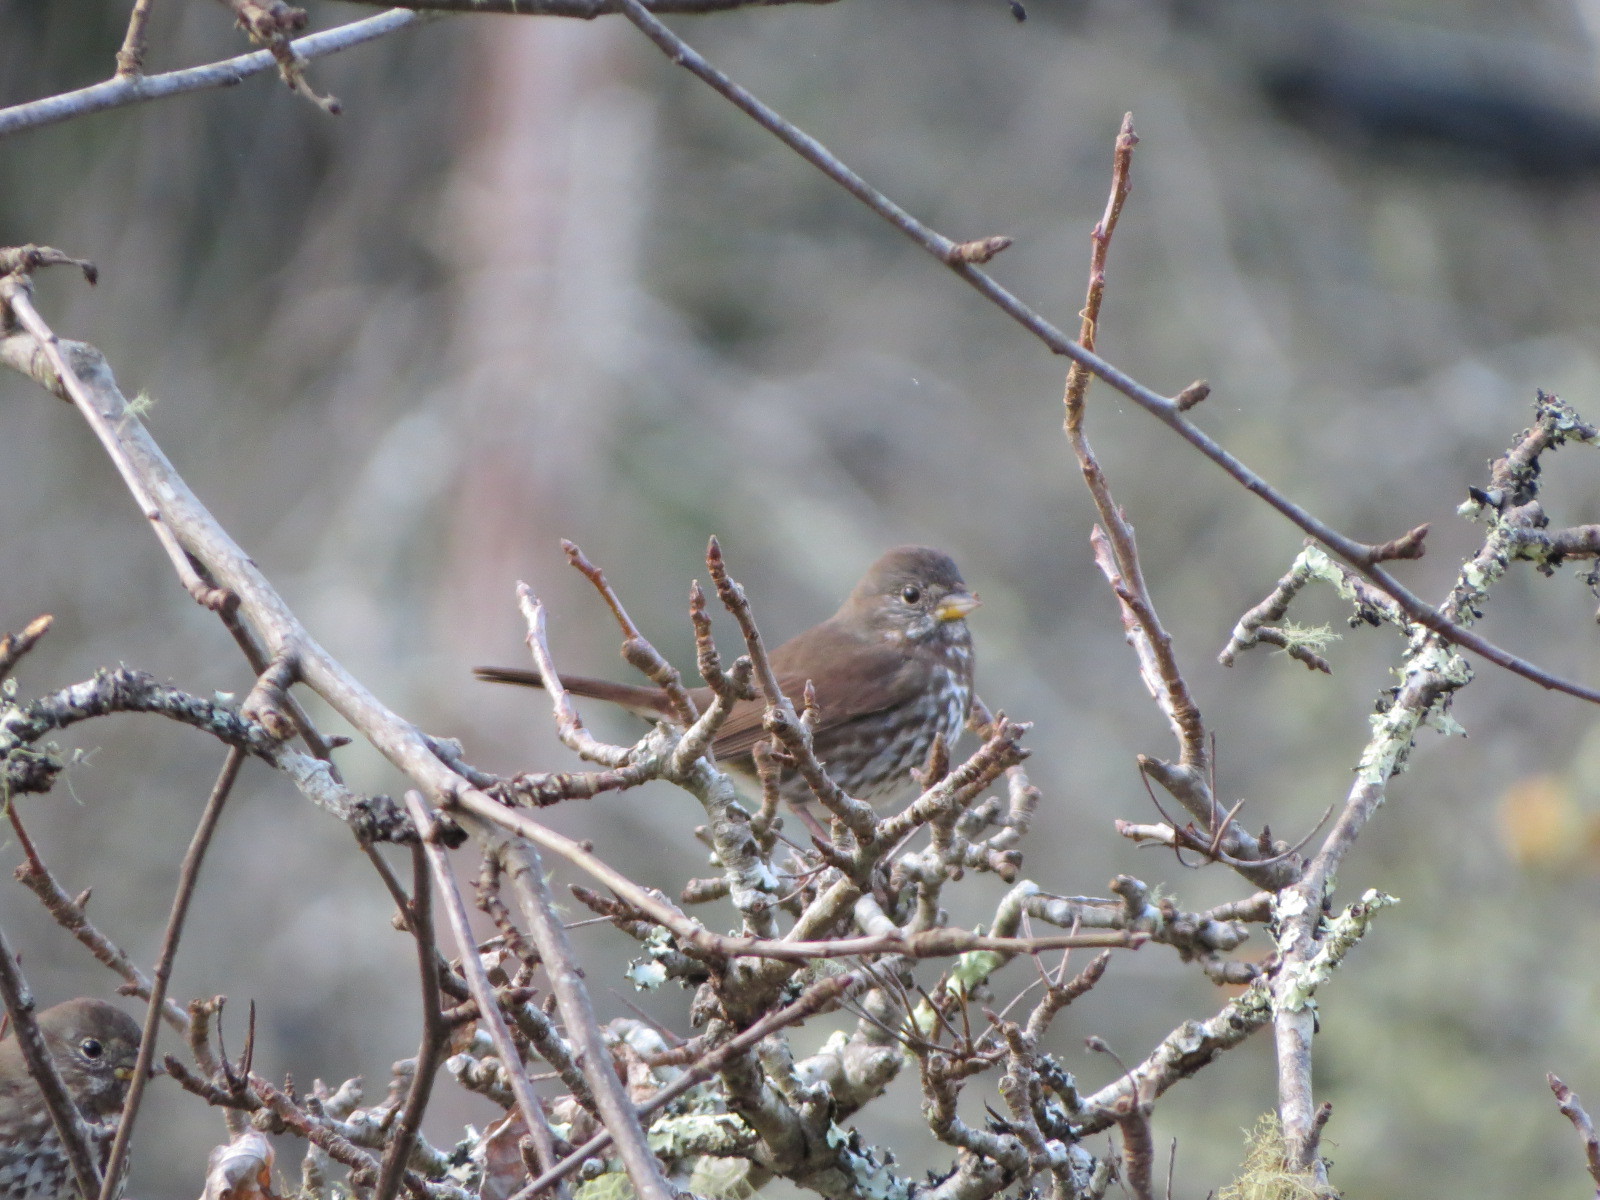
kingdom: Animalia
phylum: Chordata
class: Aves
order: Passeriformes
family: Passerellidae
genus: Passerella
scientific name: Passerella iliaca
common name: Fox sparrow
